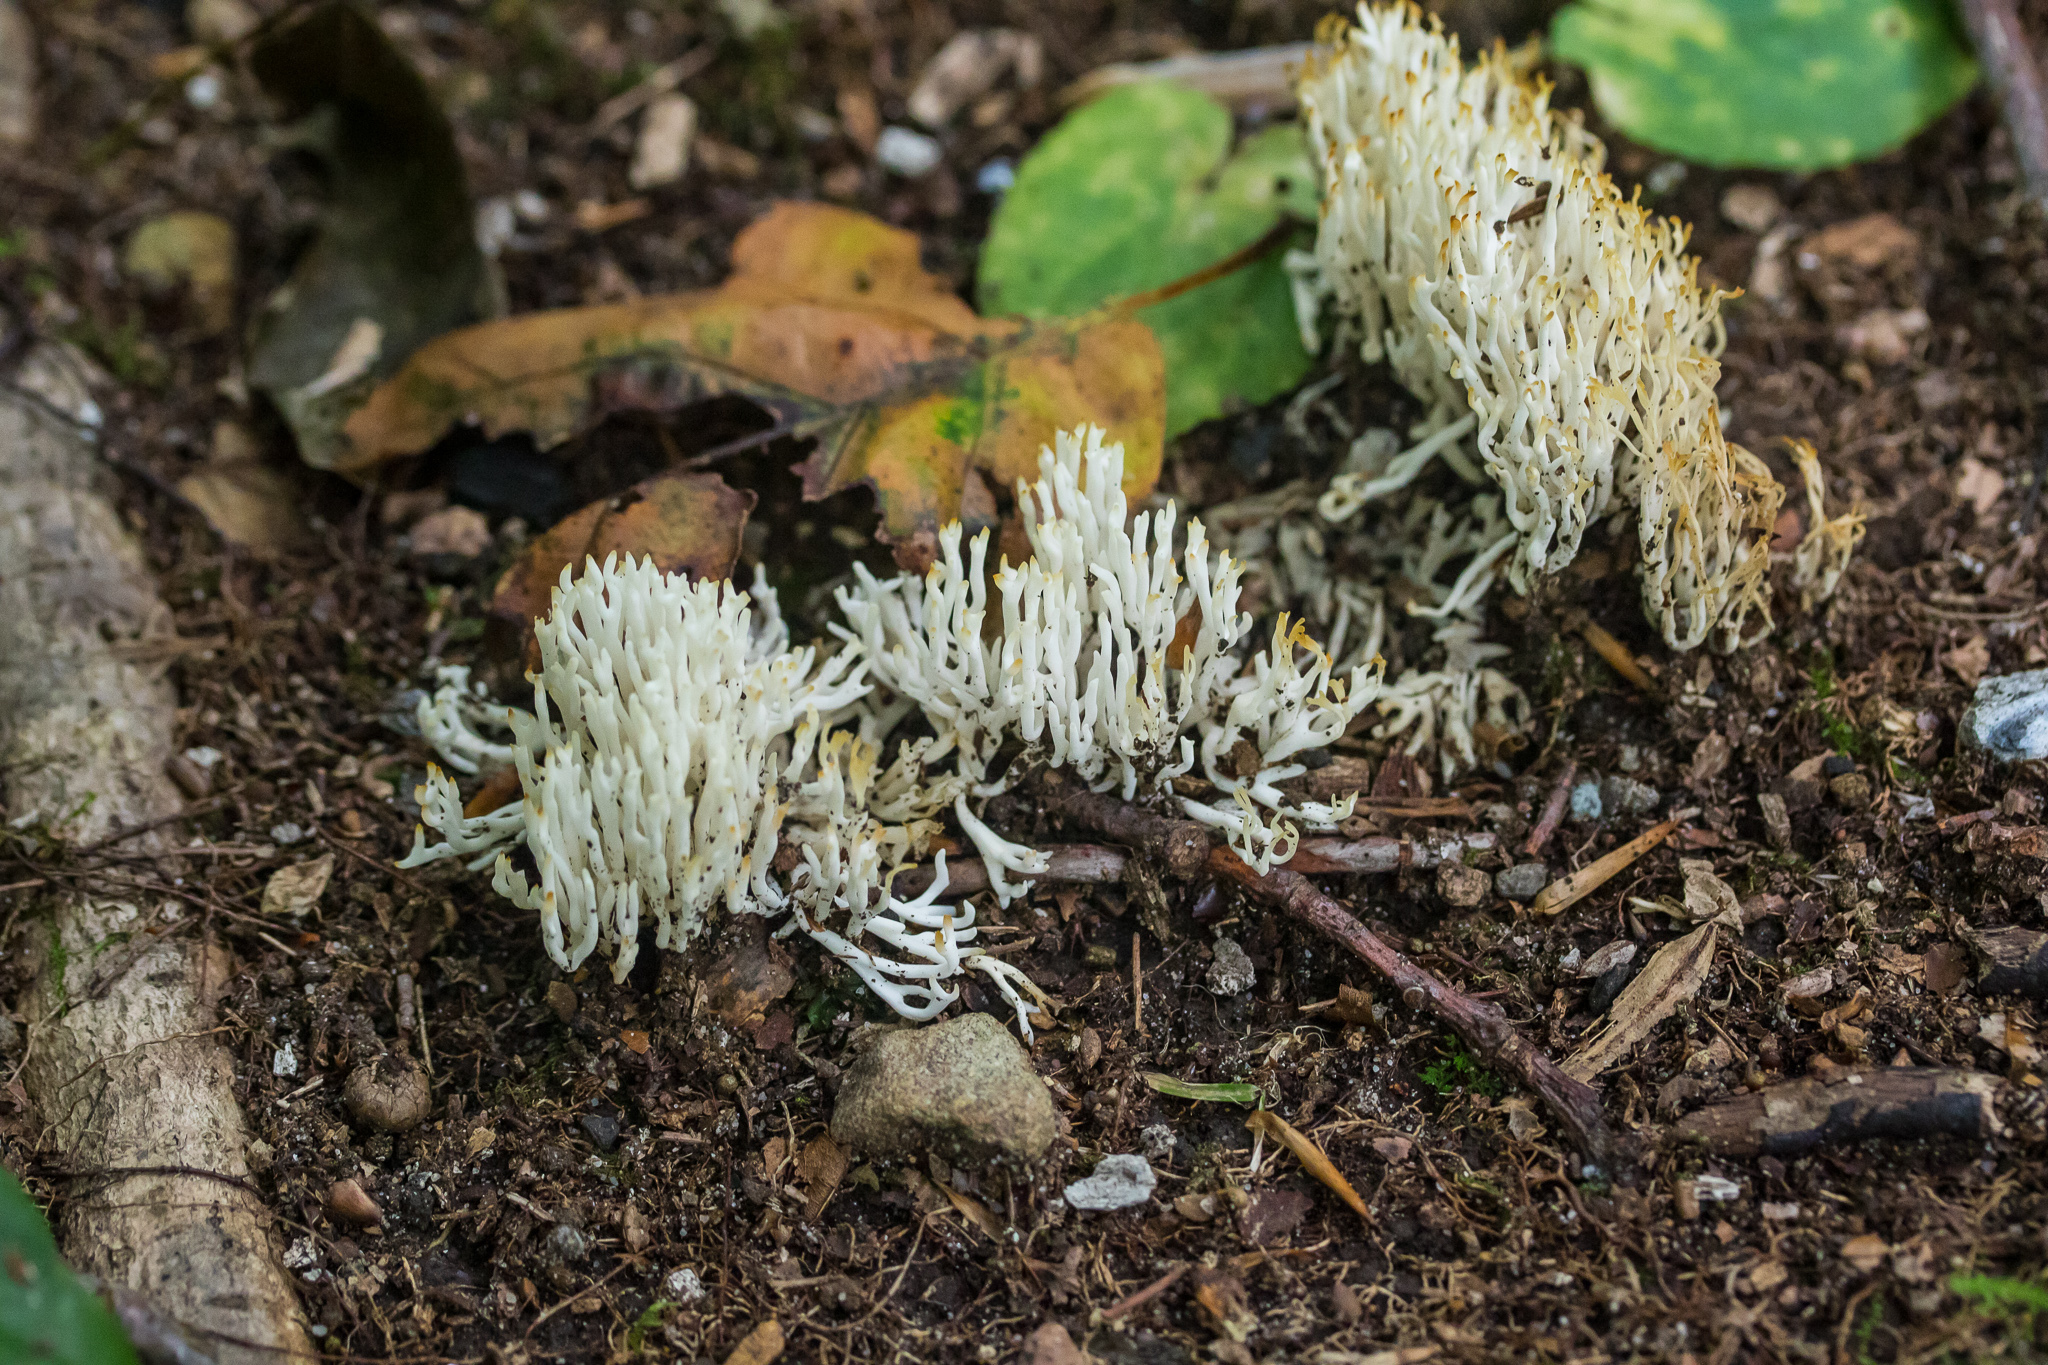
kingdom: Fungi
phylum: Basidiomycota
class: Agaricomycetes
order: Agaricales
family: Clavariaceae
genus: Ramariopsis
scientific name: Ramariopsis kunzei
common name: Ivory coral
